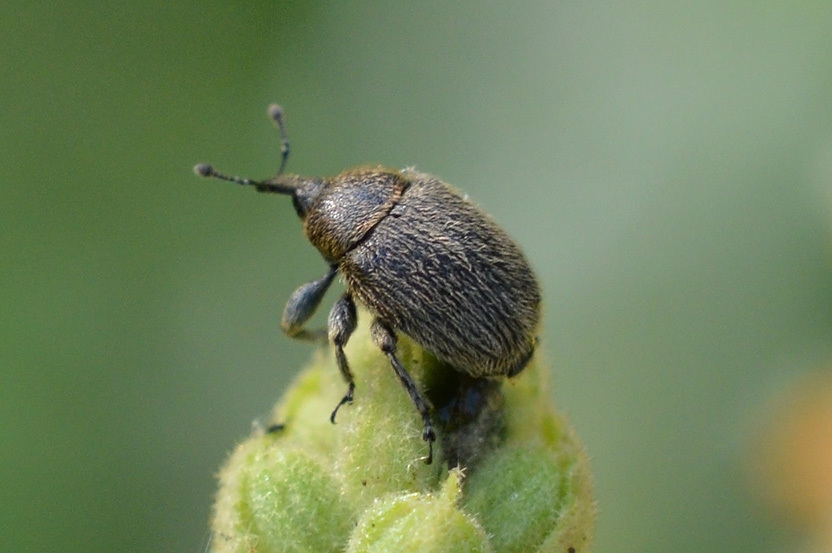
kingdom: Animalia
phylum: Arthropoda
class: Insecta
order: Coleoptera
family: Curculionidae
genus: Rhinusa
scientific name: Rhinusa tetra
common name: Weevil
